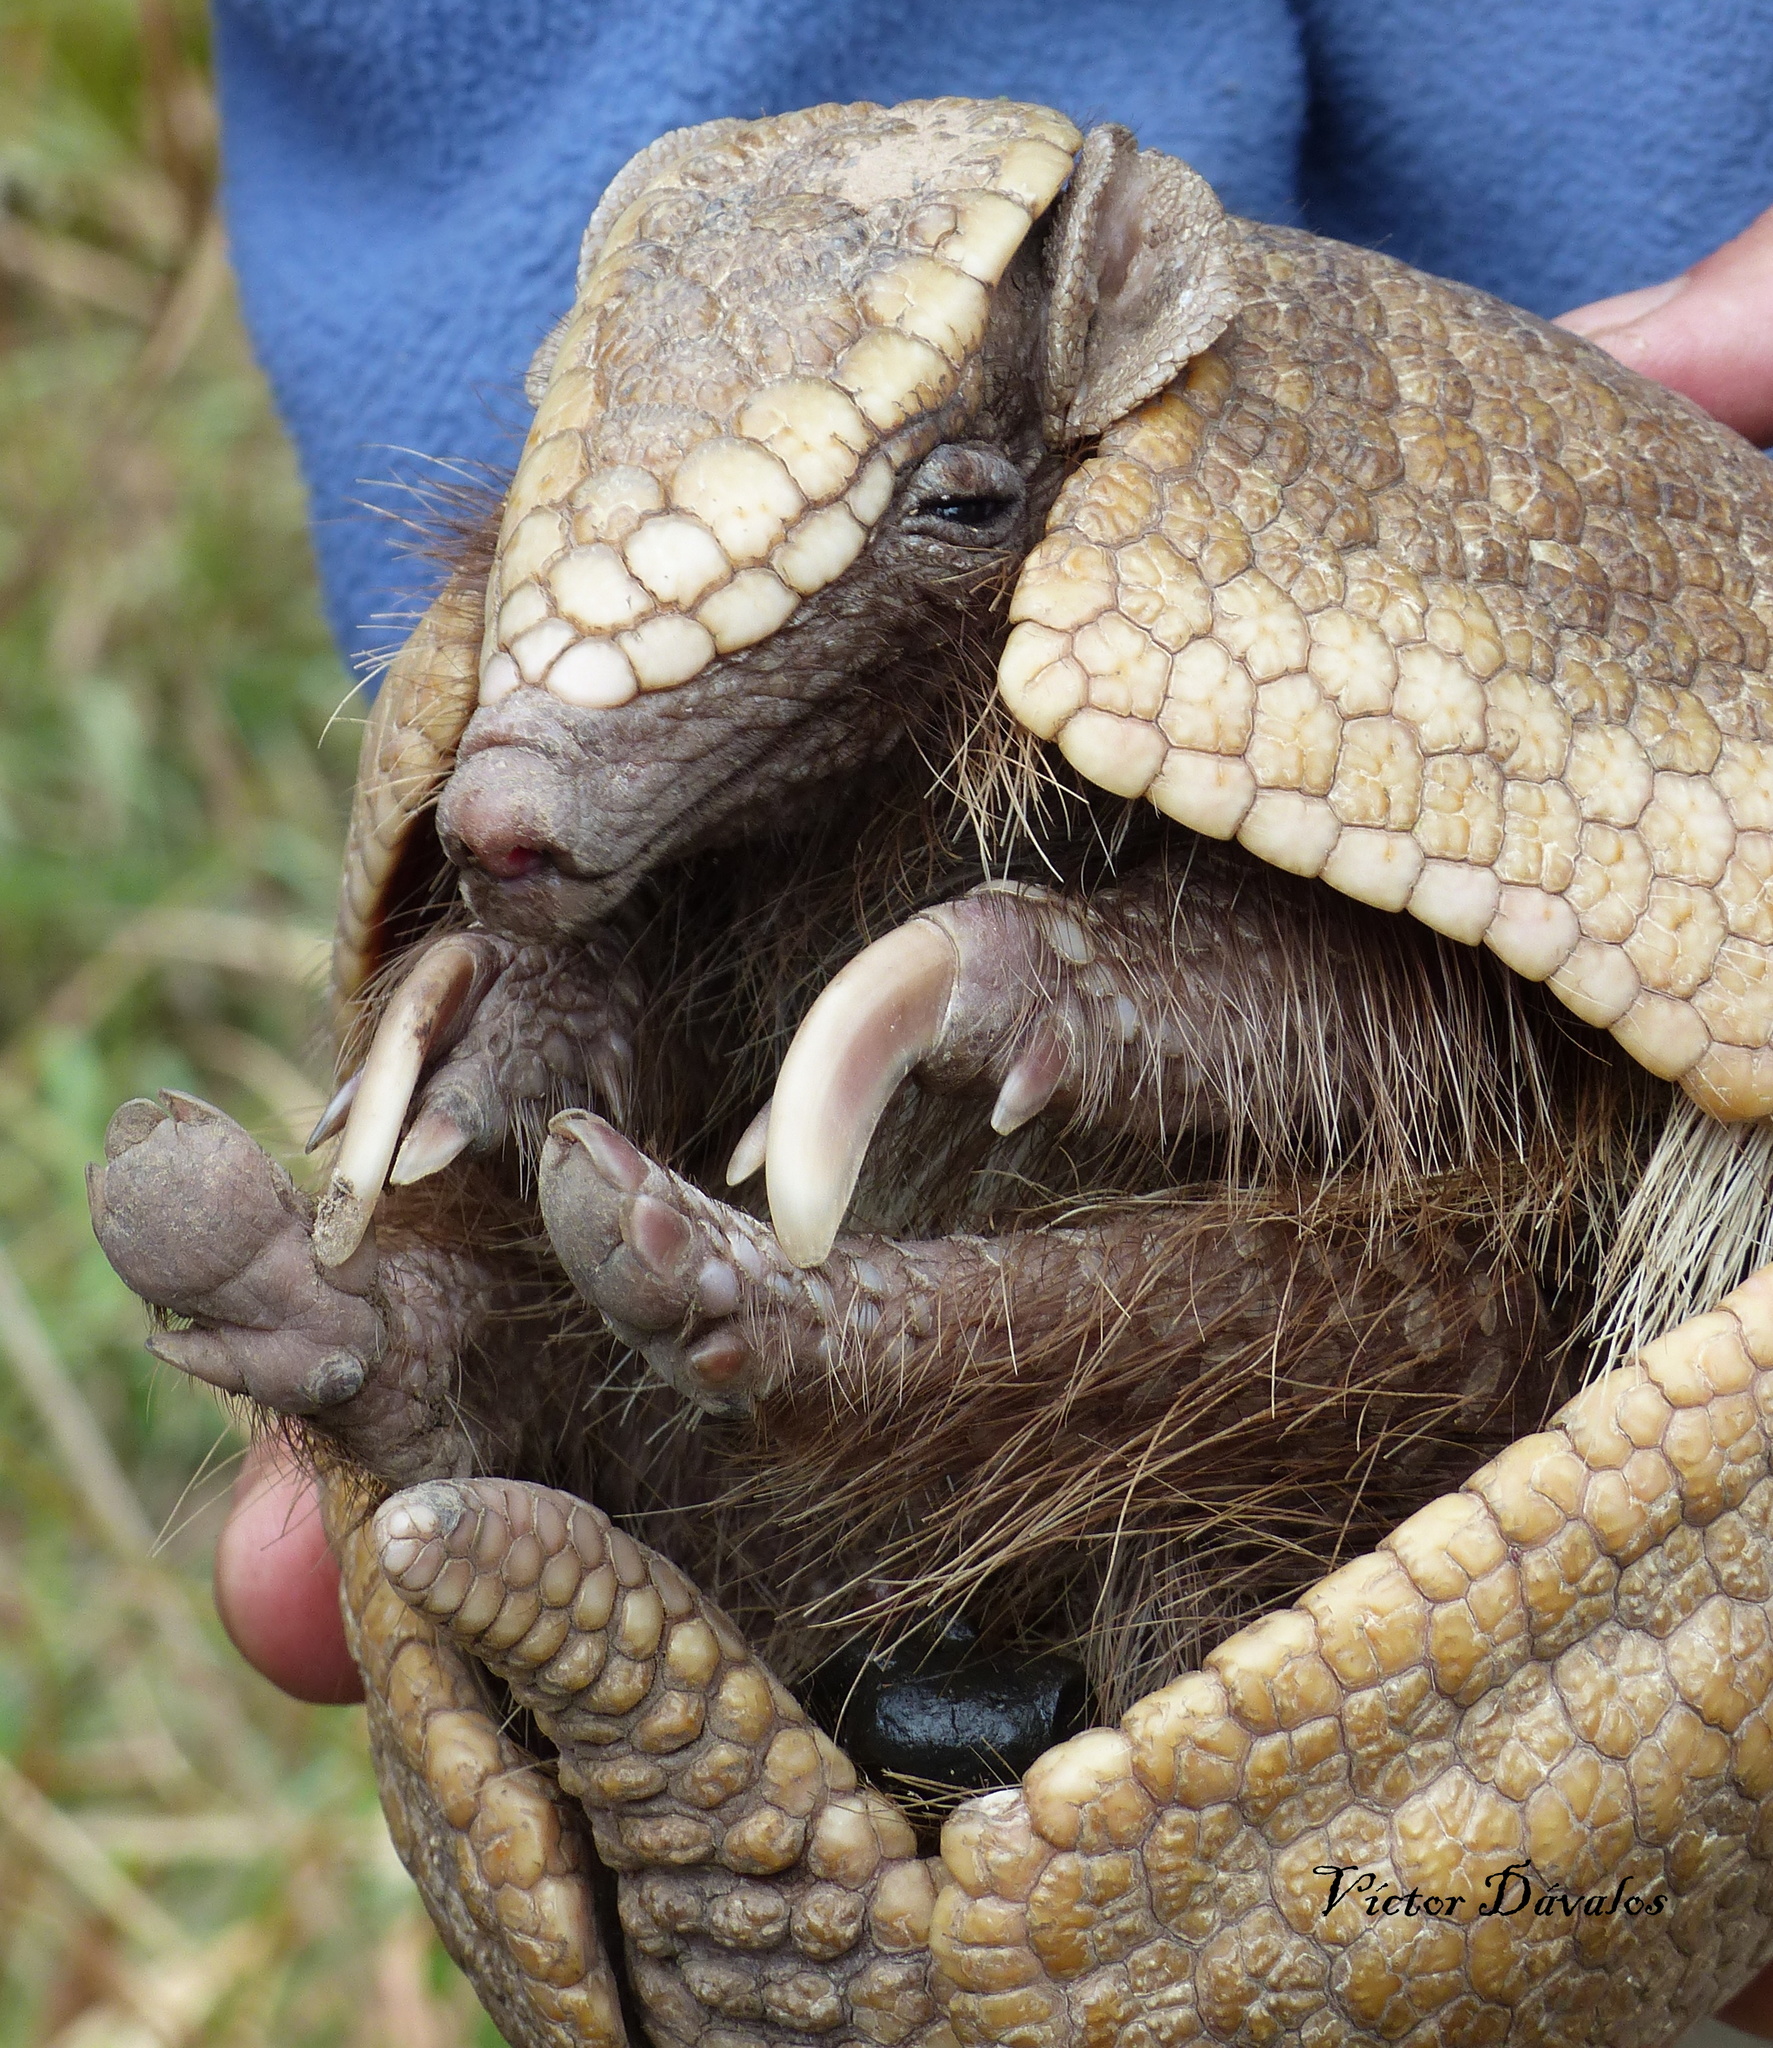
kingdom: Animalia
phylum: Chordata
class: Mammalia
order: Cingulata
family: Dasypodidae
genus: Tolypeutes
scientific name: Tolypeutes matacus
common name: Southern three-banded armadillo
